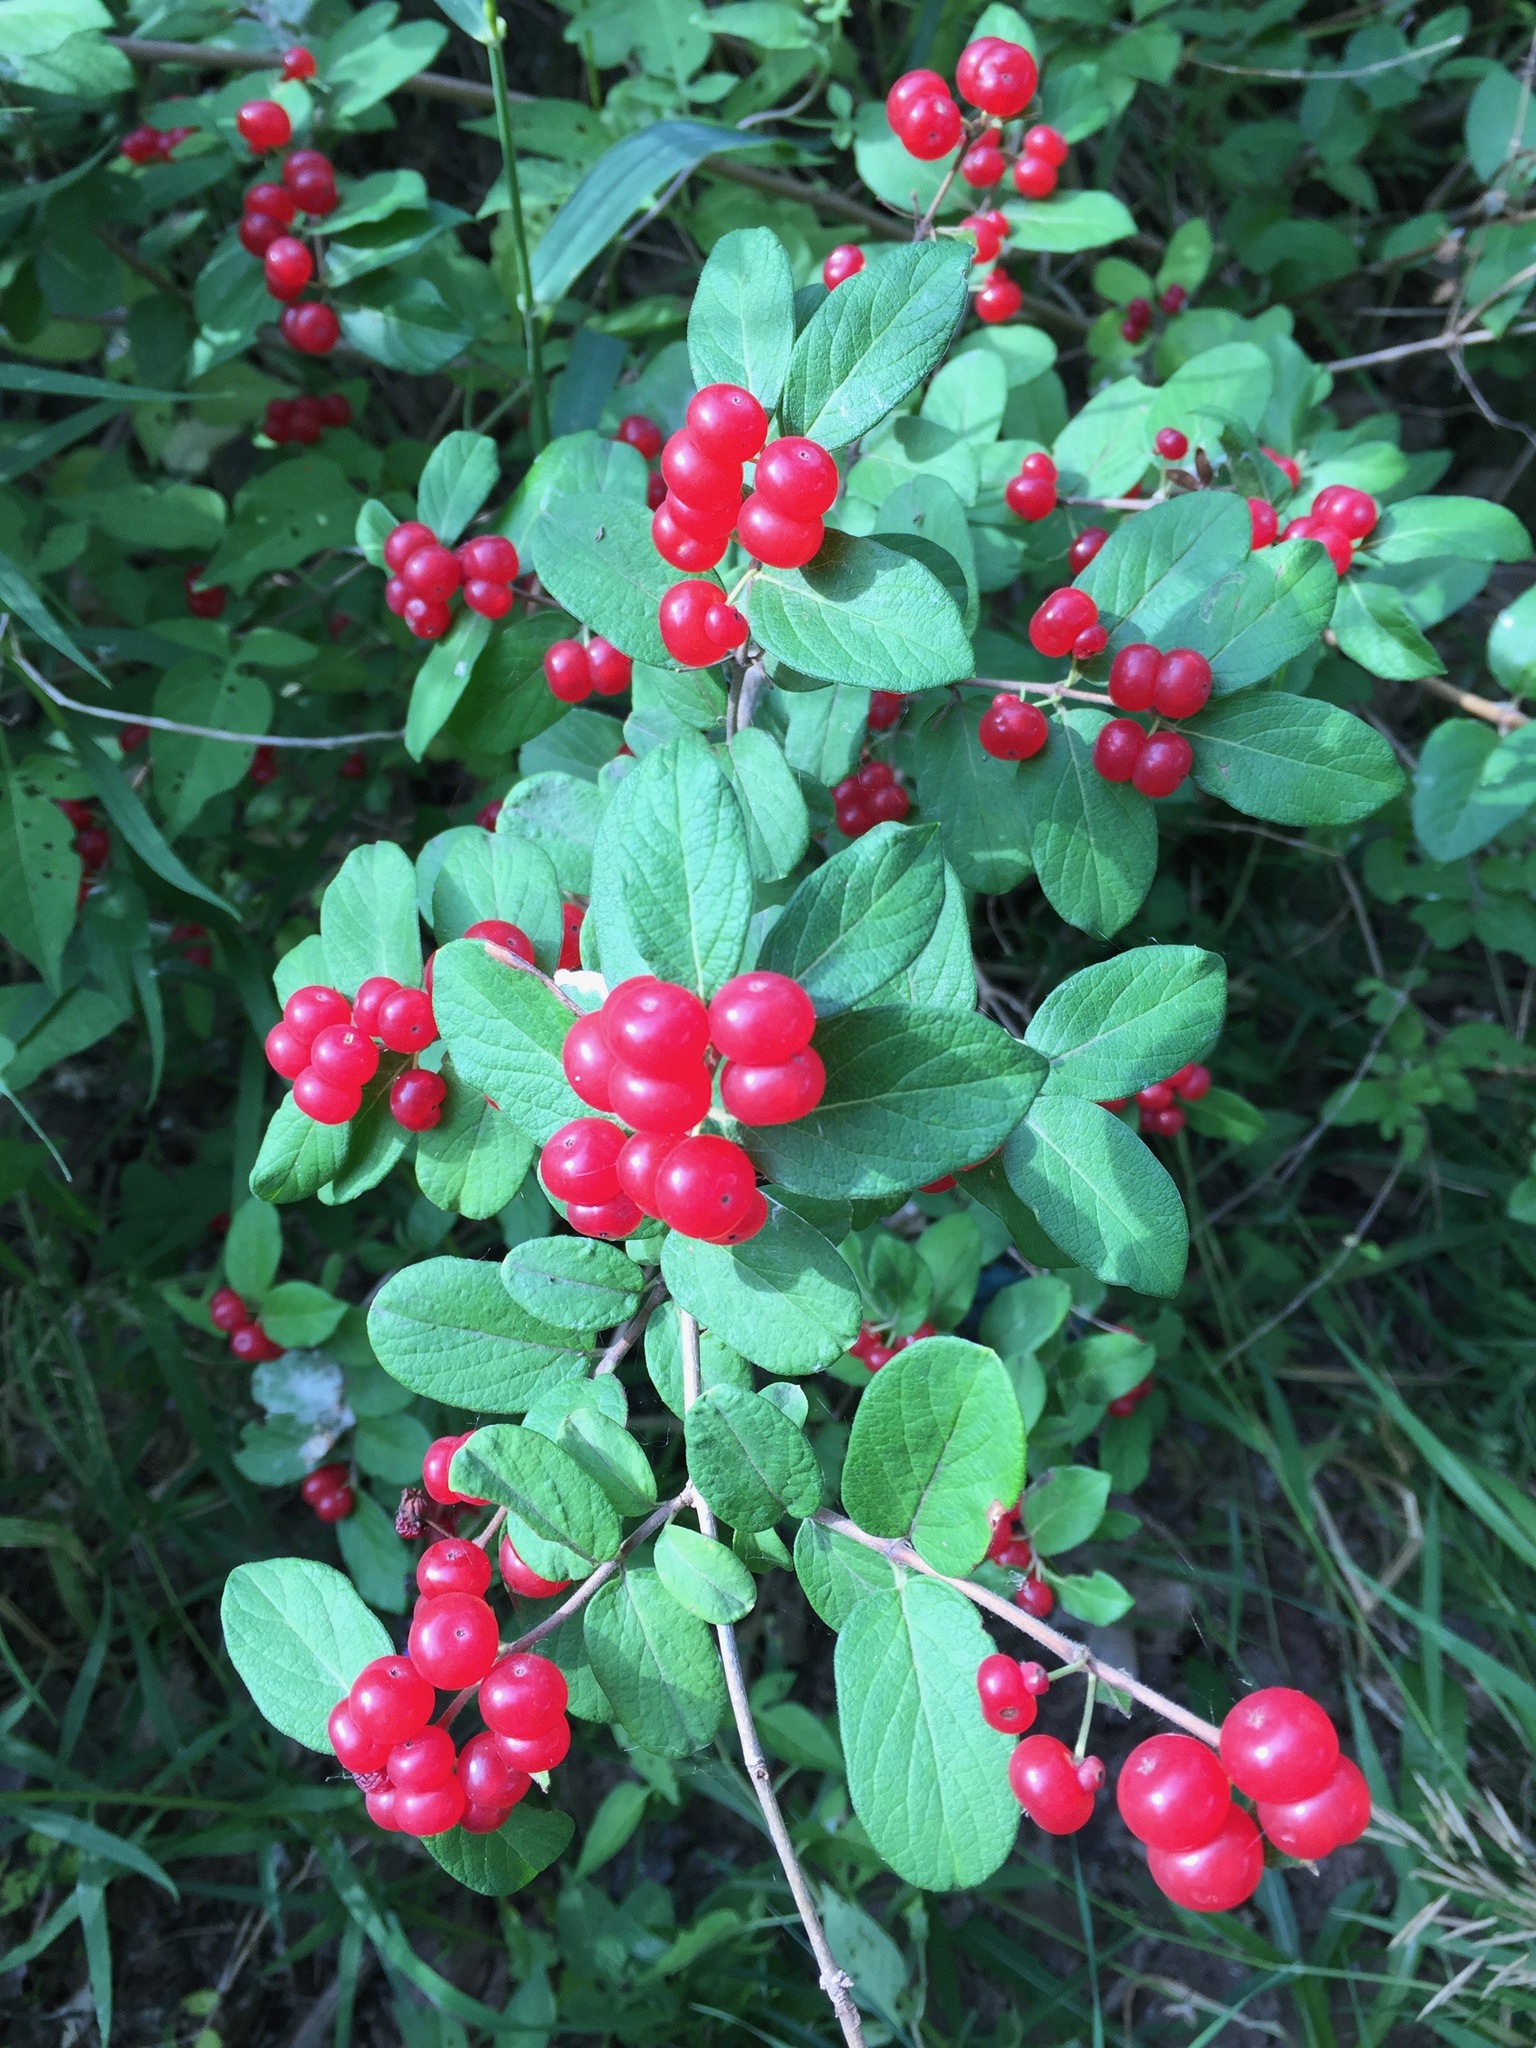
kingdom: Plantae
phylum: Tracheophyta
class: Magnoliopsida
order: Dipsacales
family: Caprifoliaceae
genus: Lonicera
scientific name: Lonicera morrowii
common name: Morrow's honeysuckle
